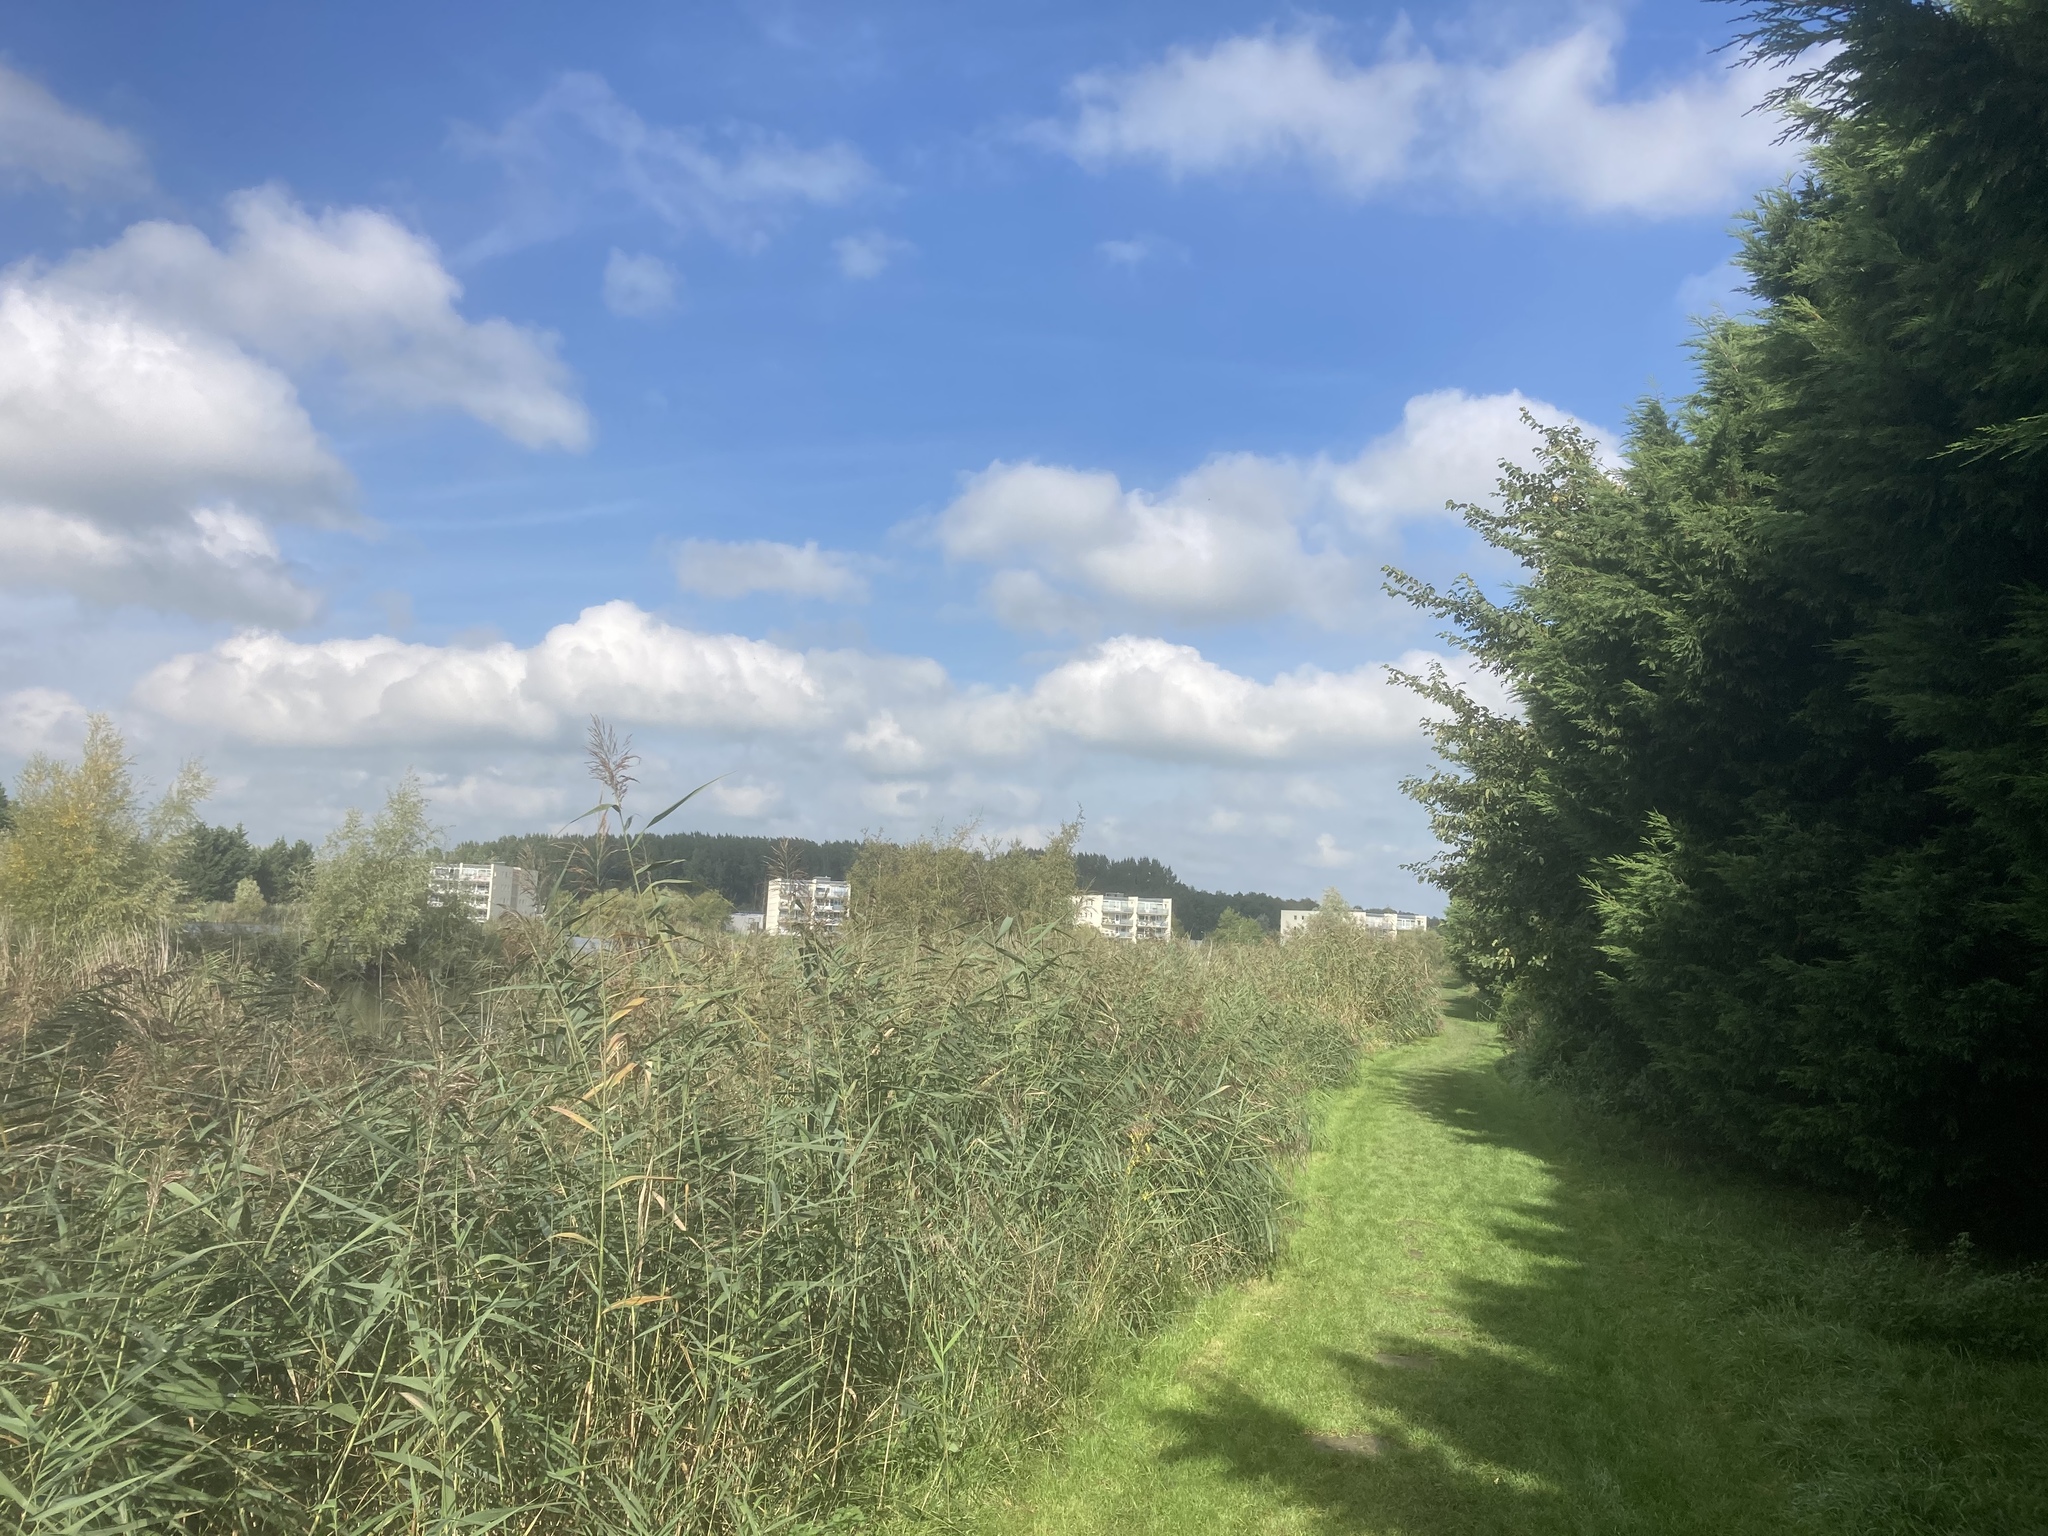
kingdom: Plantae
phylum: Tracheophyta
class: Liliopsida
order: Poales
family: Poaceae
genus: Phragmites
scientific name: Phragmites australis
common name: Common reed
